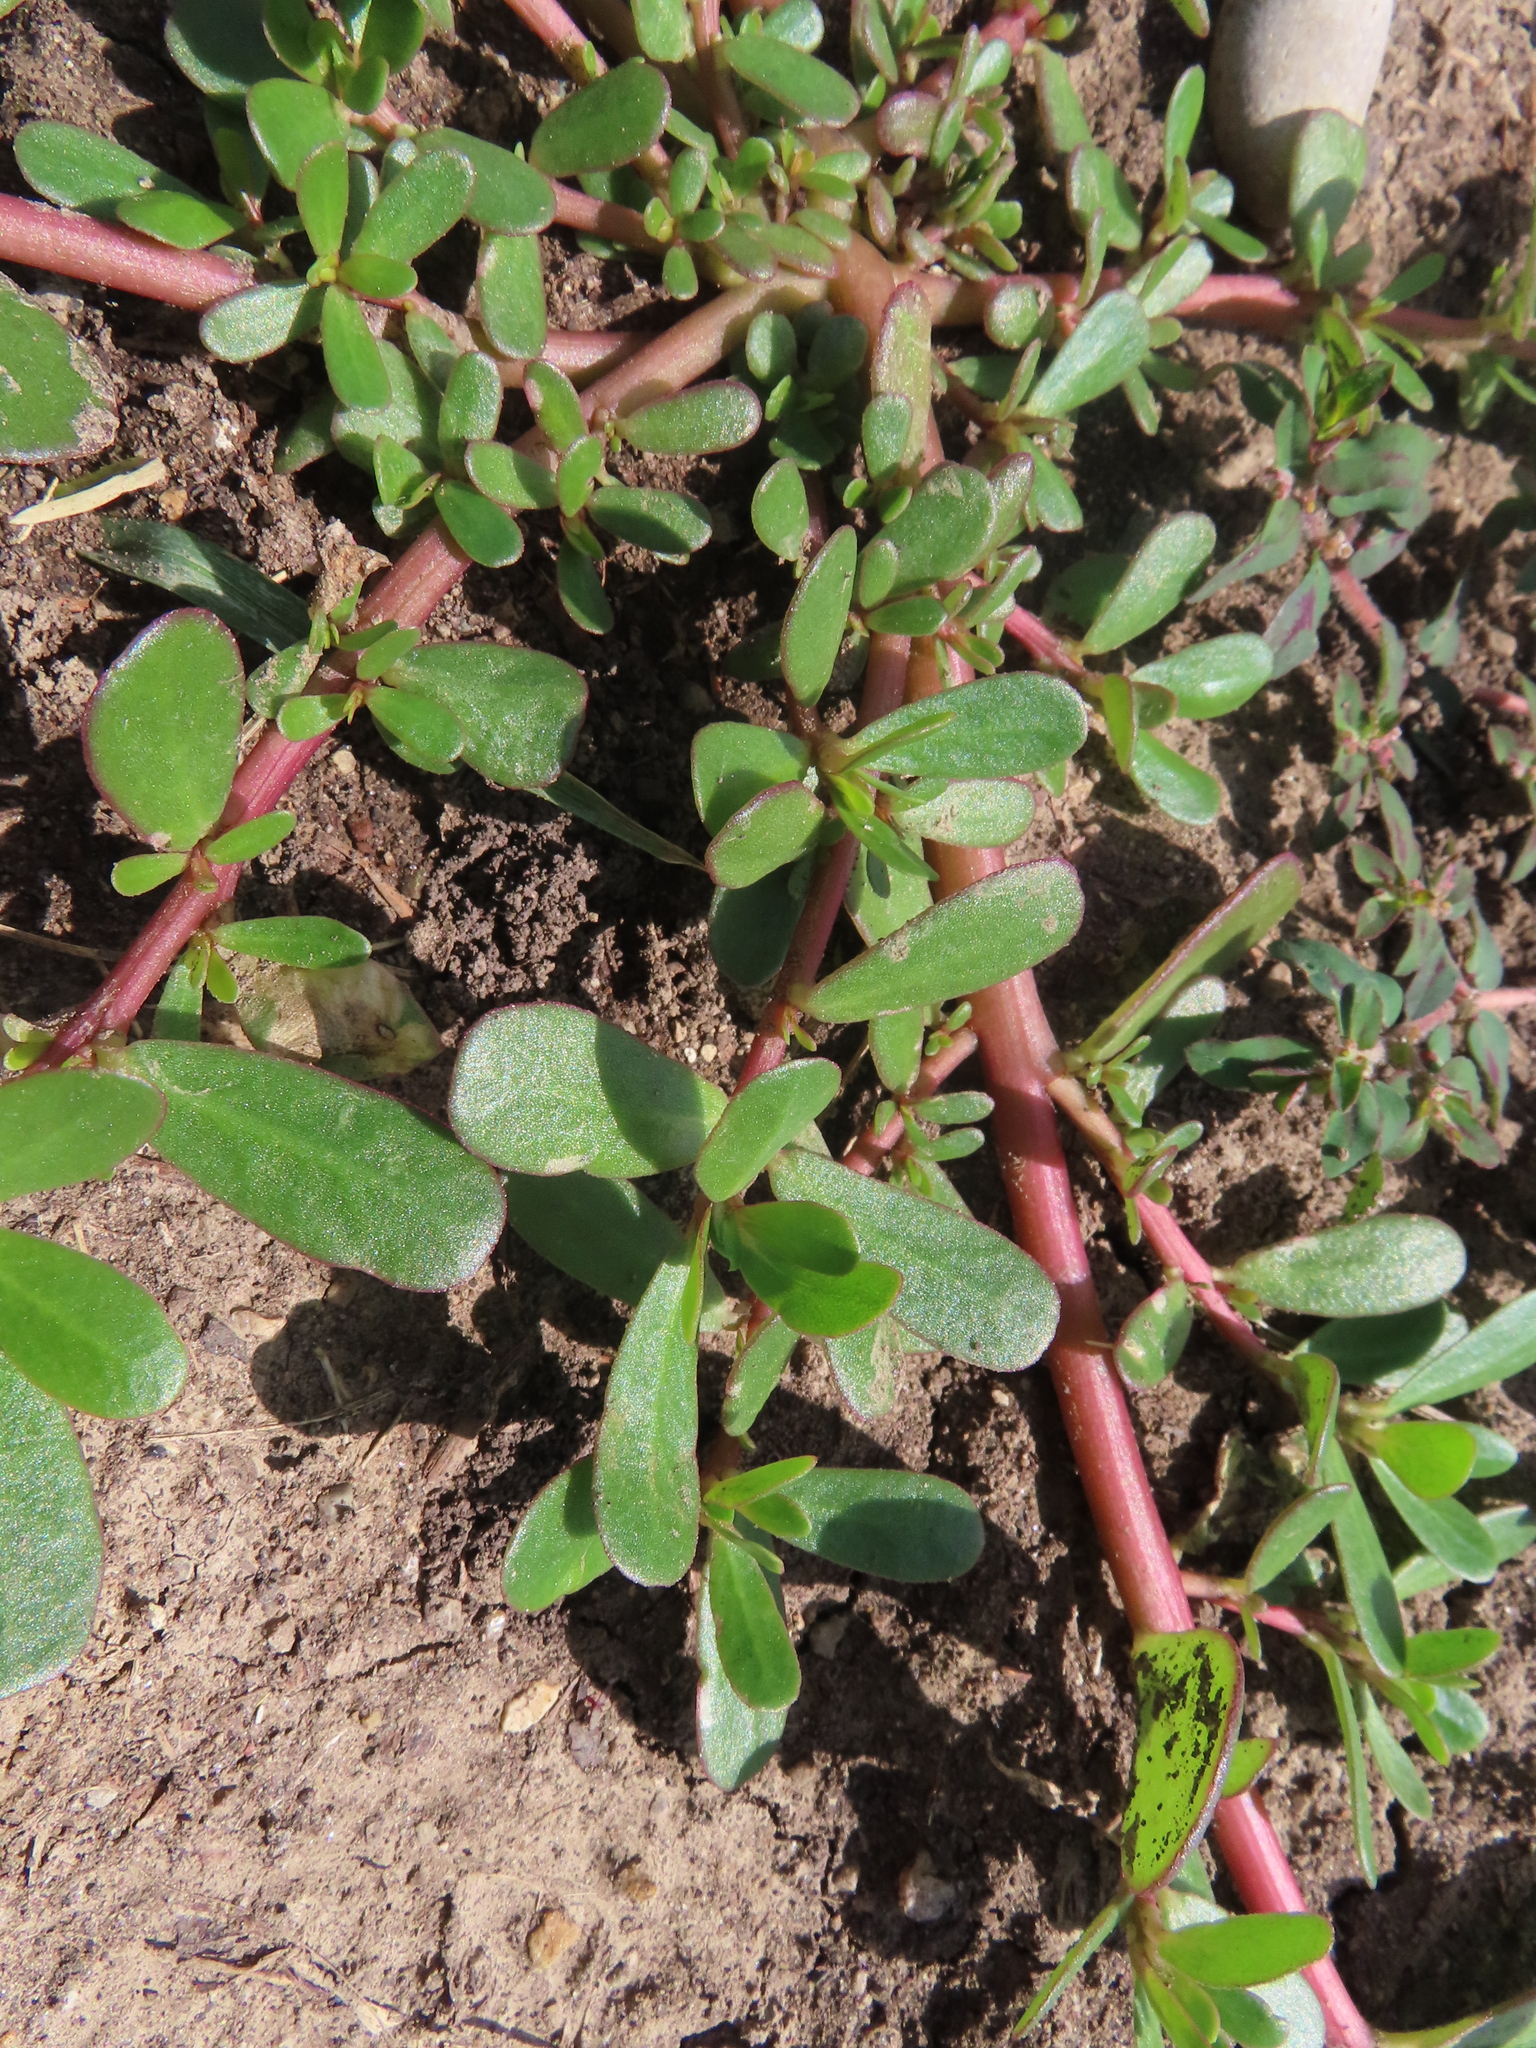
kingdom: Plantae
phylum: Tracheophyta
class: Magnoliopsida
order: Caryophyllales
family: Portulacaceae
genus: Portulaca
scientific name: Portulaca oleracea
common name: Common purslane
